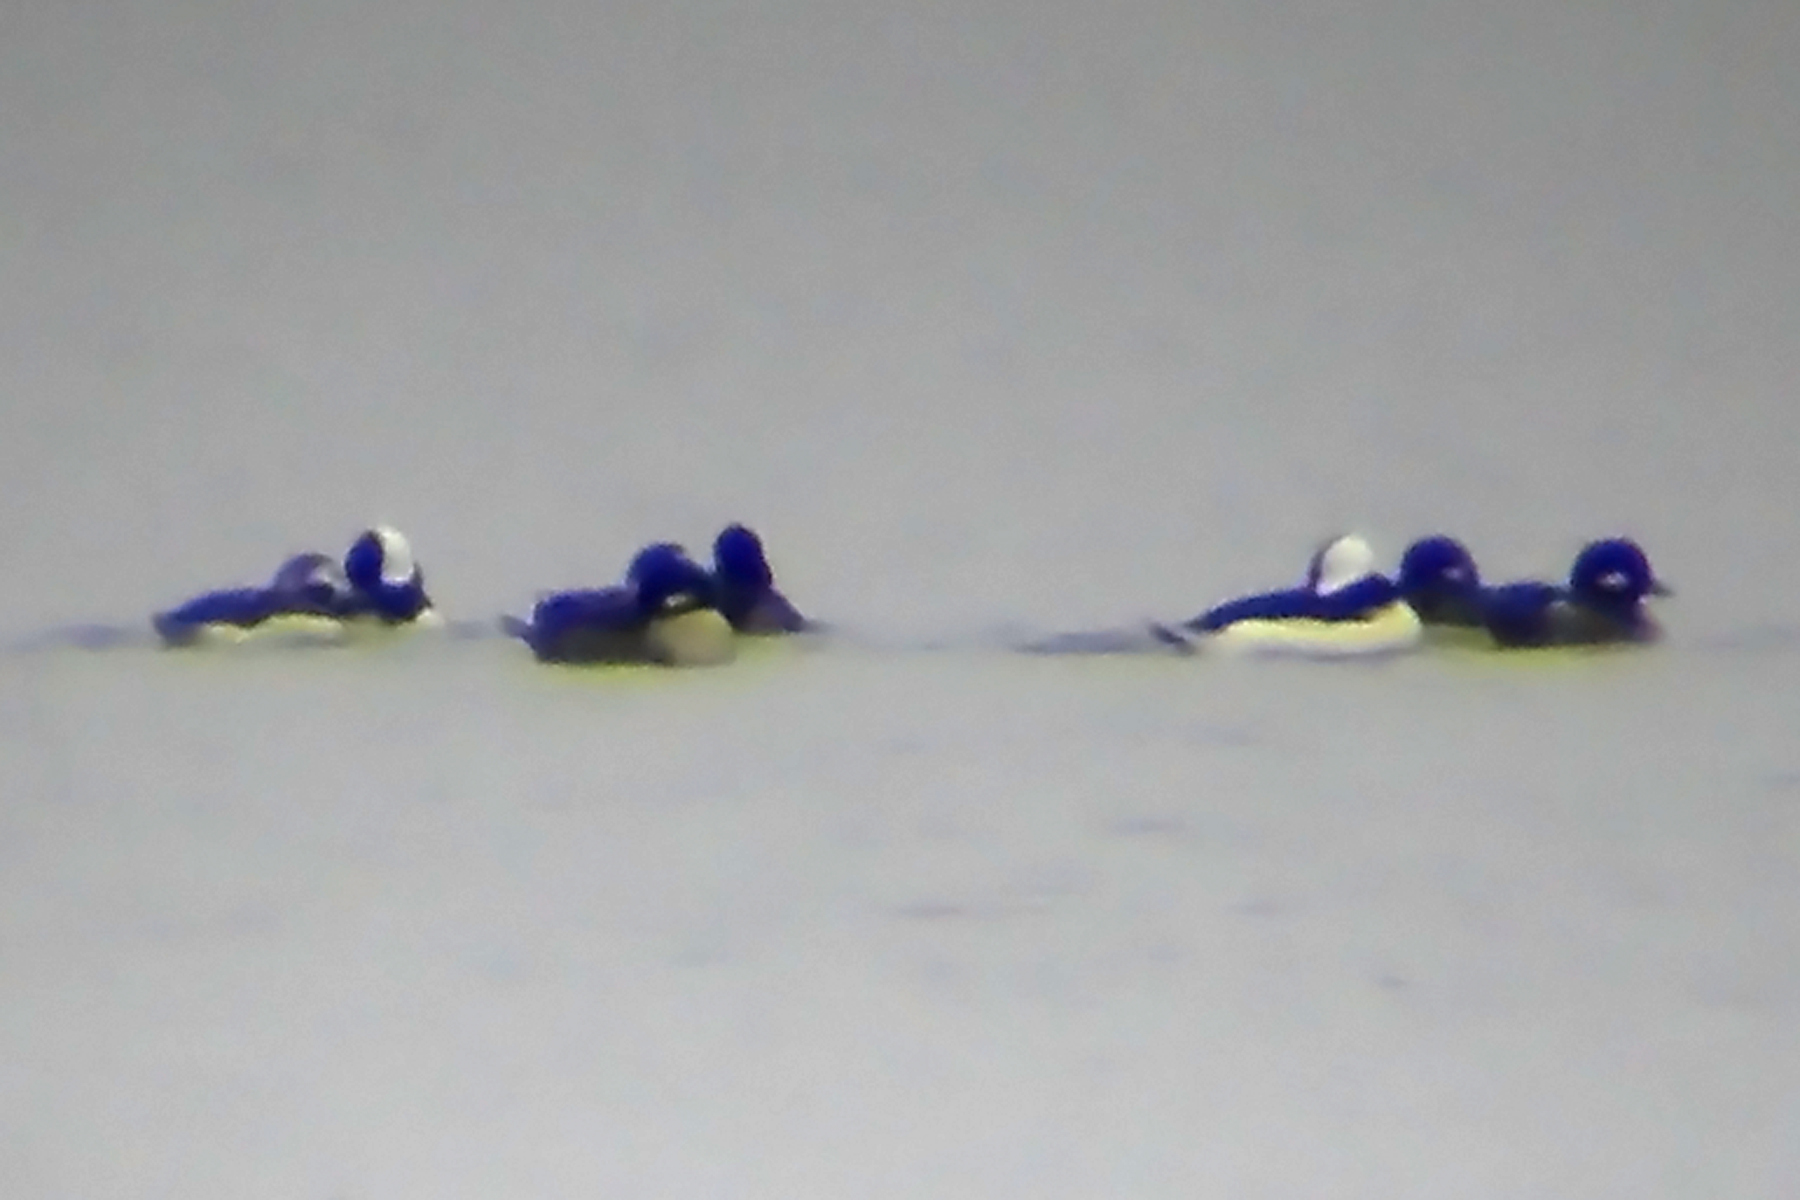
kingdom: Animalia
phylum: Chordata
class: Aves
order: Anseriformes
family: Anatidae
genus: Bucephala
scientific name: Bucephala albeola
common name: Bufflehead
